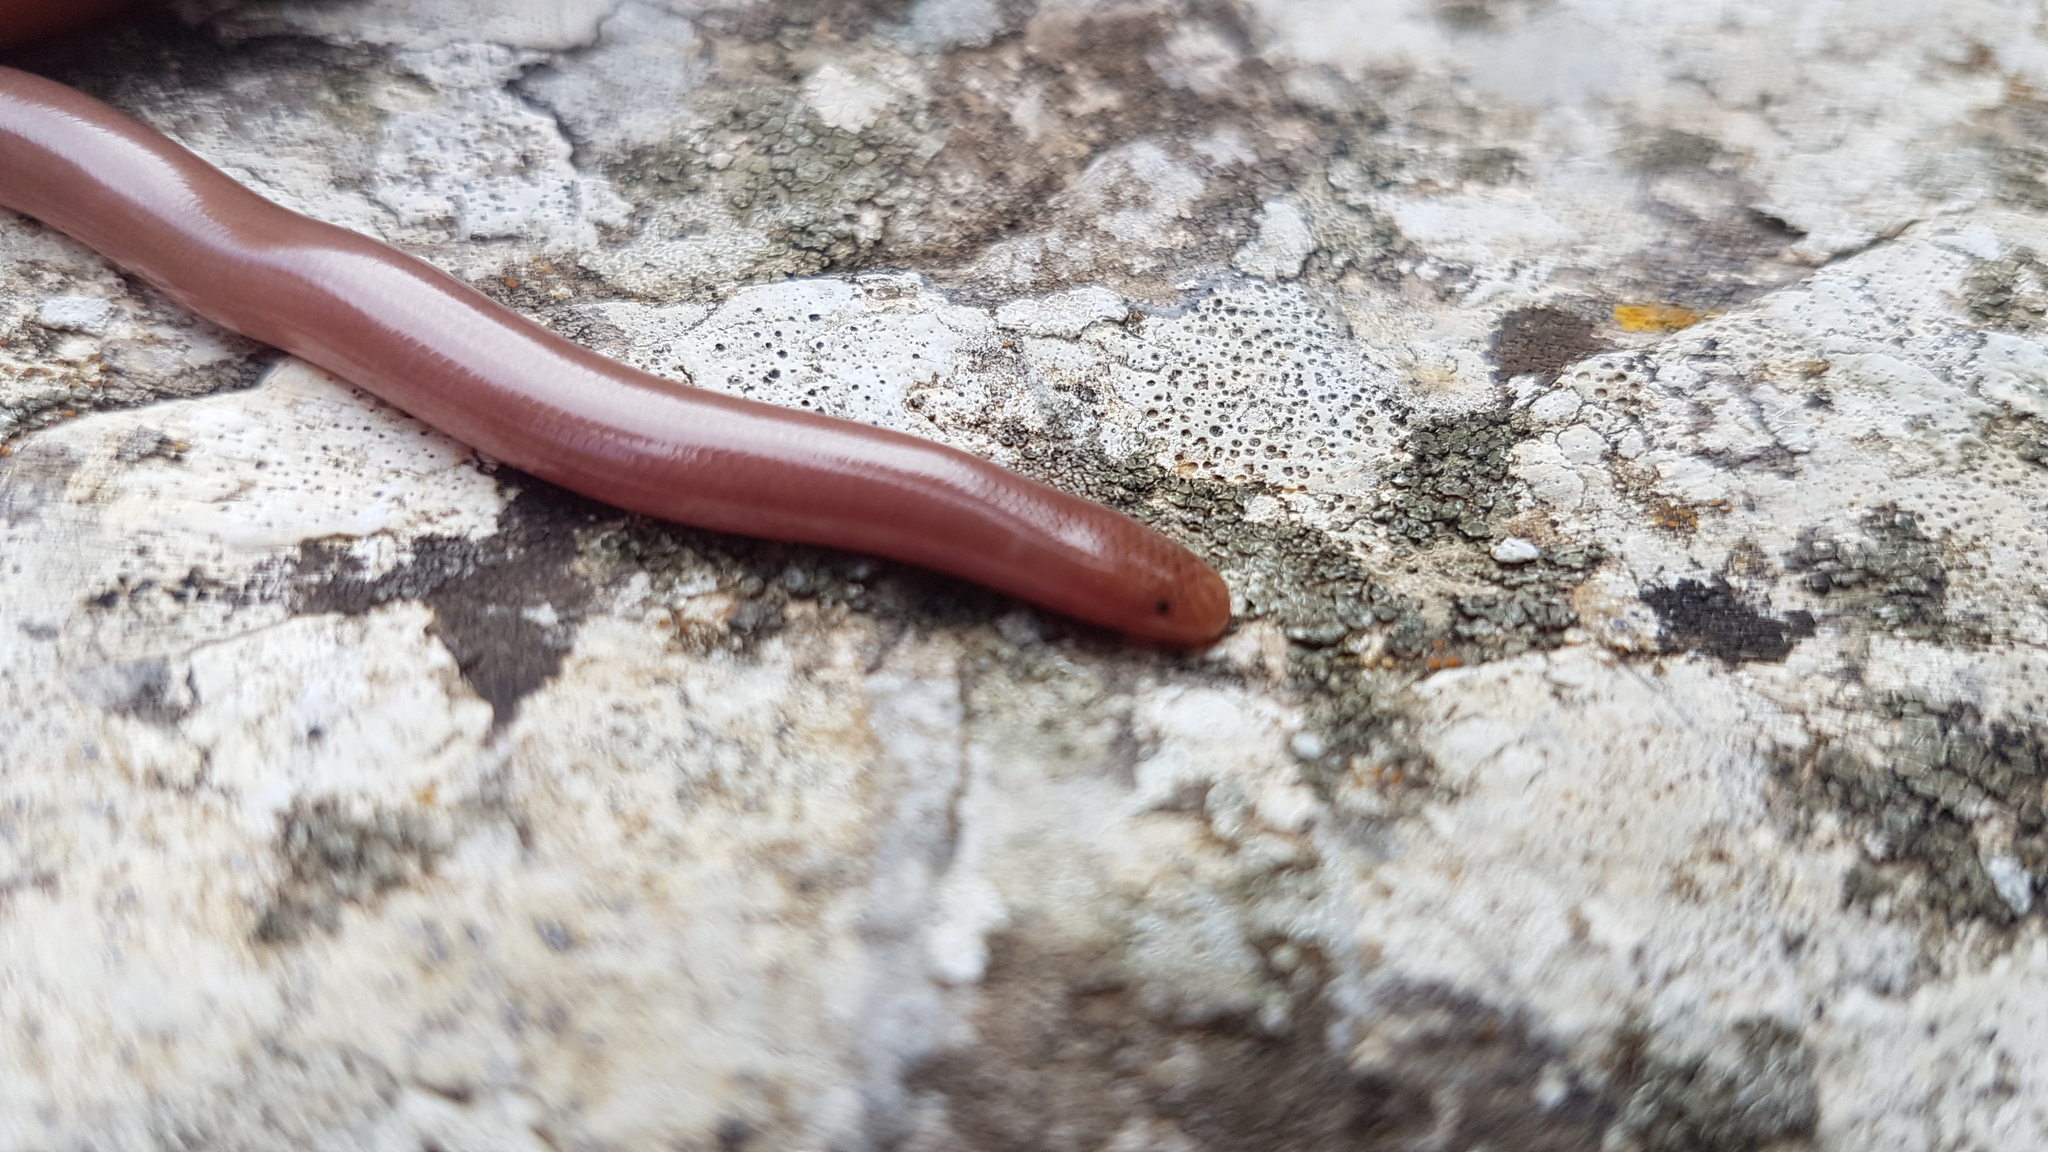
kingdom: Animalia
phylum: Chordata
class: Squamata
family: Typhlopidae
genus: Xerotyphlops
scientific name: Xerotyphlops vermicularis
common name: Eurasian blind snake
